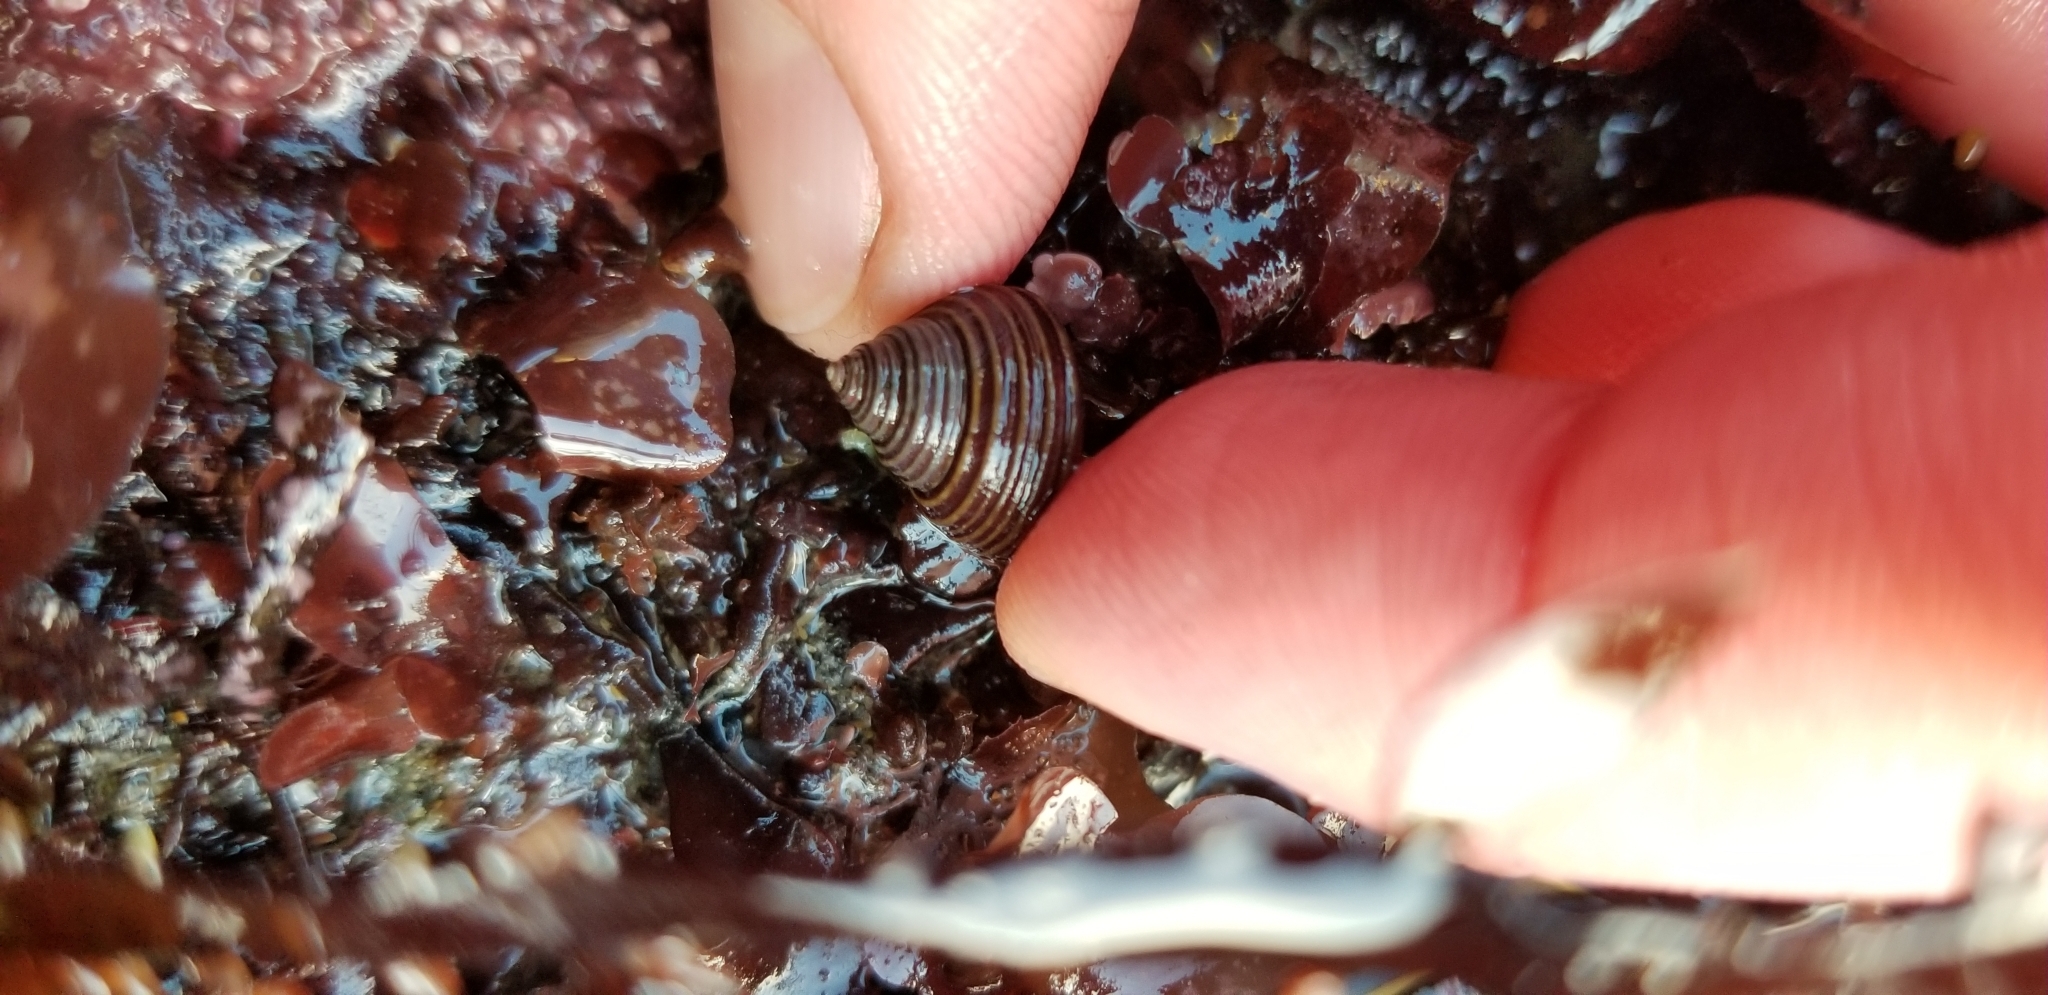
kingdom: Animalia
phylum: Mollusca
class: Gastropoda
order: Trochida
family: Calliostomatidae
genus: Calliostoma
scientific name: Calliostoma ligatum
